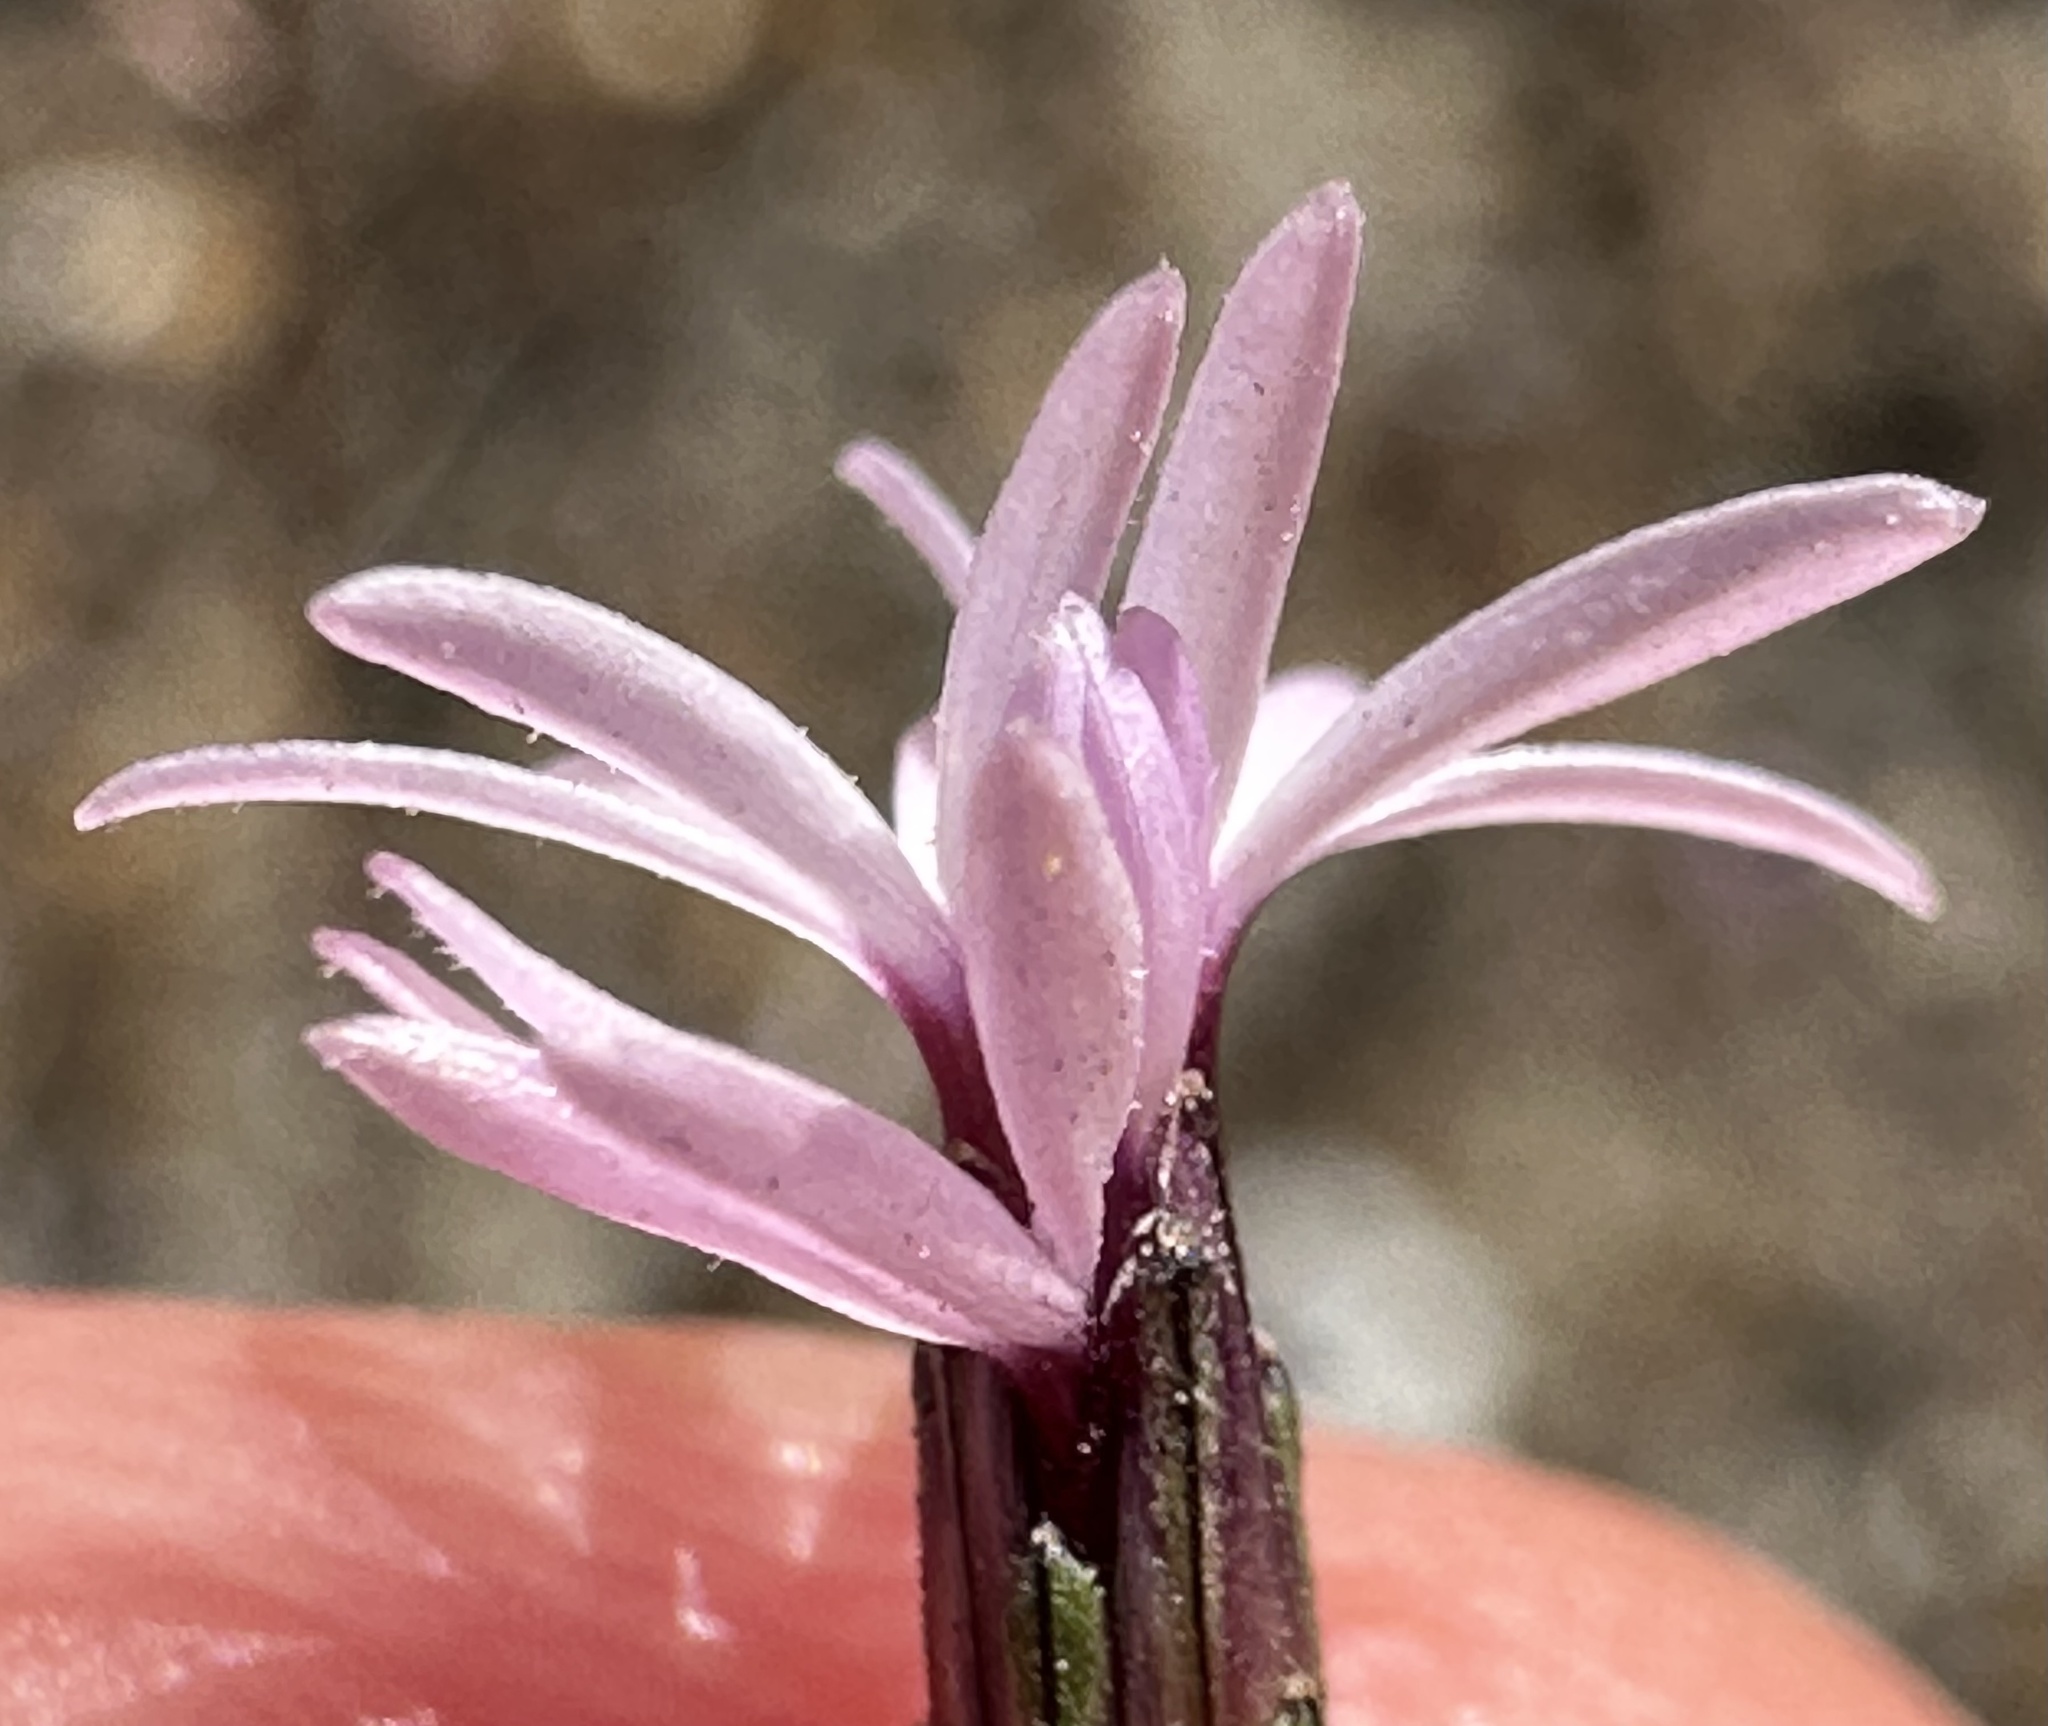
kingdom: Plantae
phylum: Tracheophyta
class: Magnoliopsida
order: Asterales
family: Asteraceae
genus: Lessingia
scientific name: Lessingia micradenia
